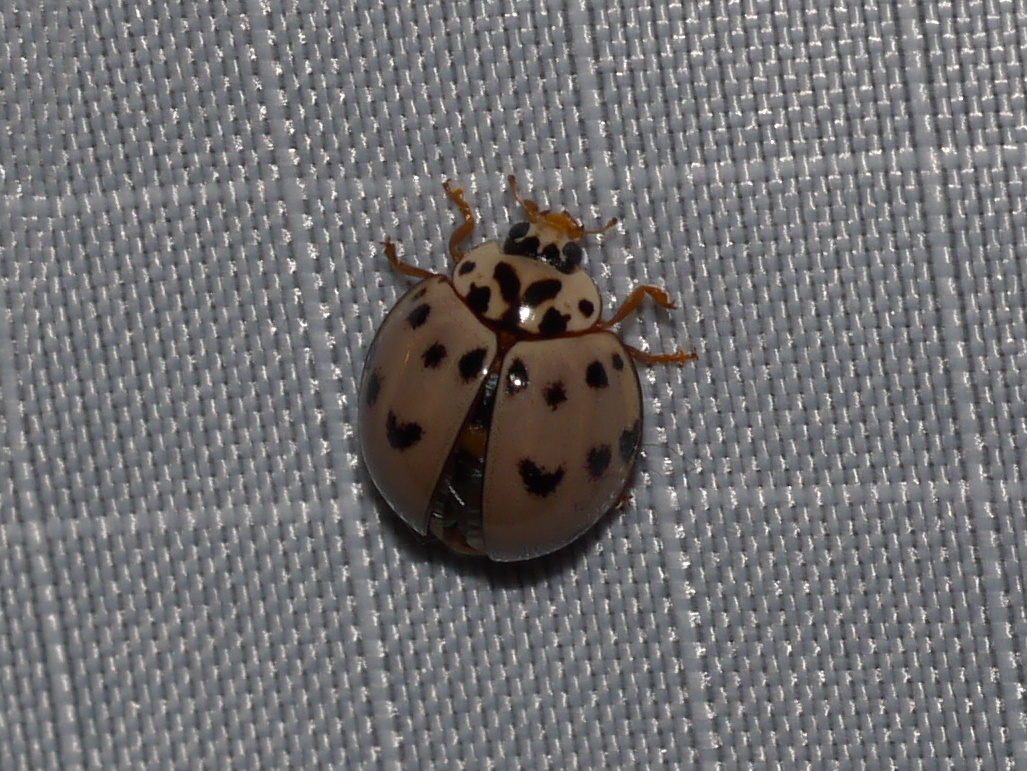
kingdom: Animalia
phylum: Arthropoda
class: Insecta
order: Coleoptera
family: Coccinellidae
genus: Olla
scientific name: Olla v-nigrum
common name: Ashy gray lady beetle
